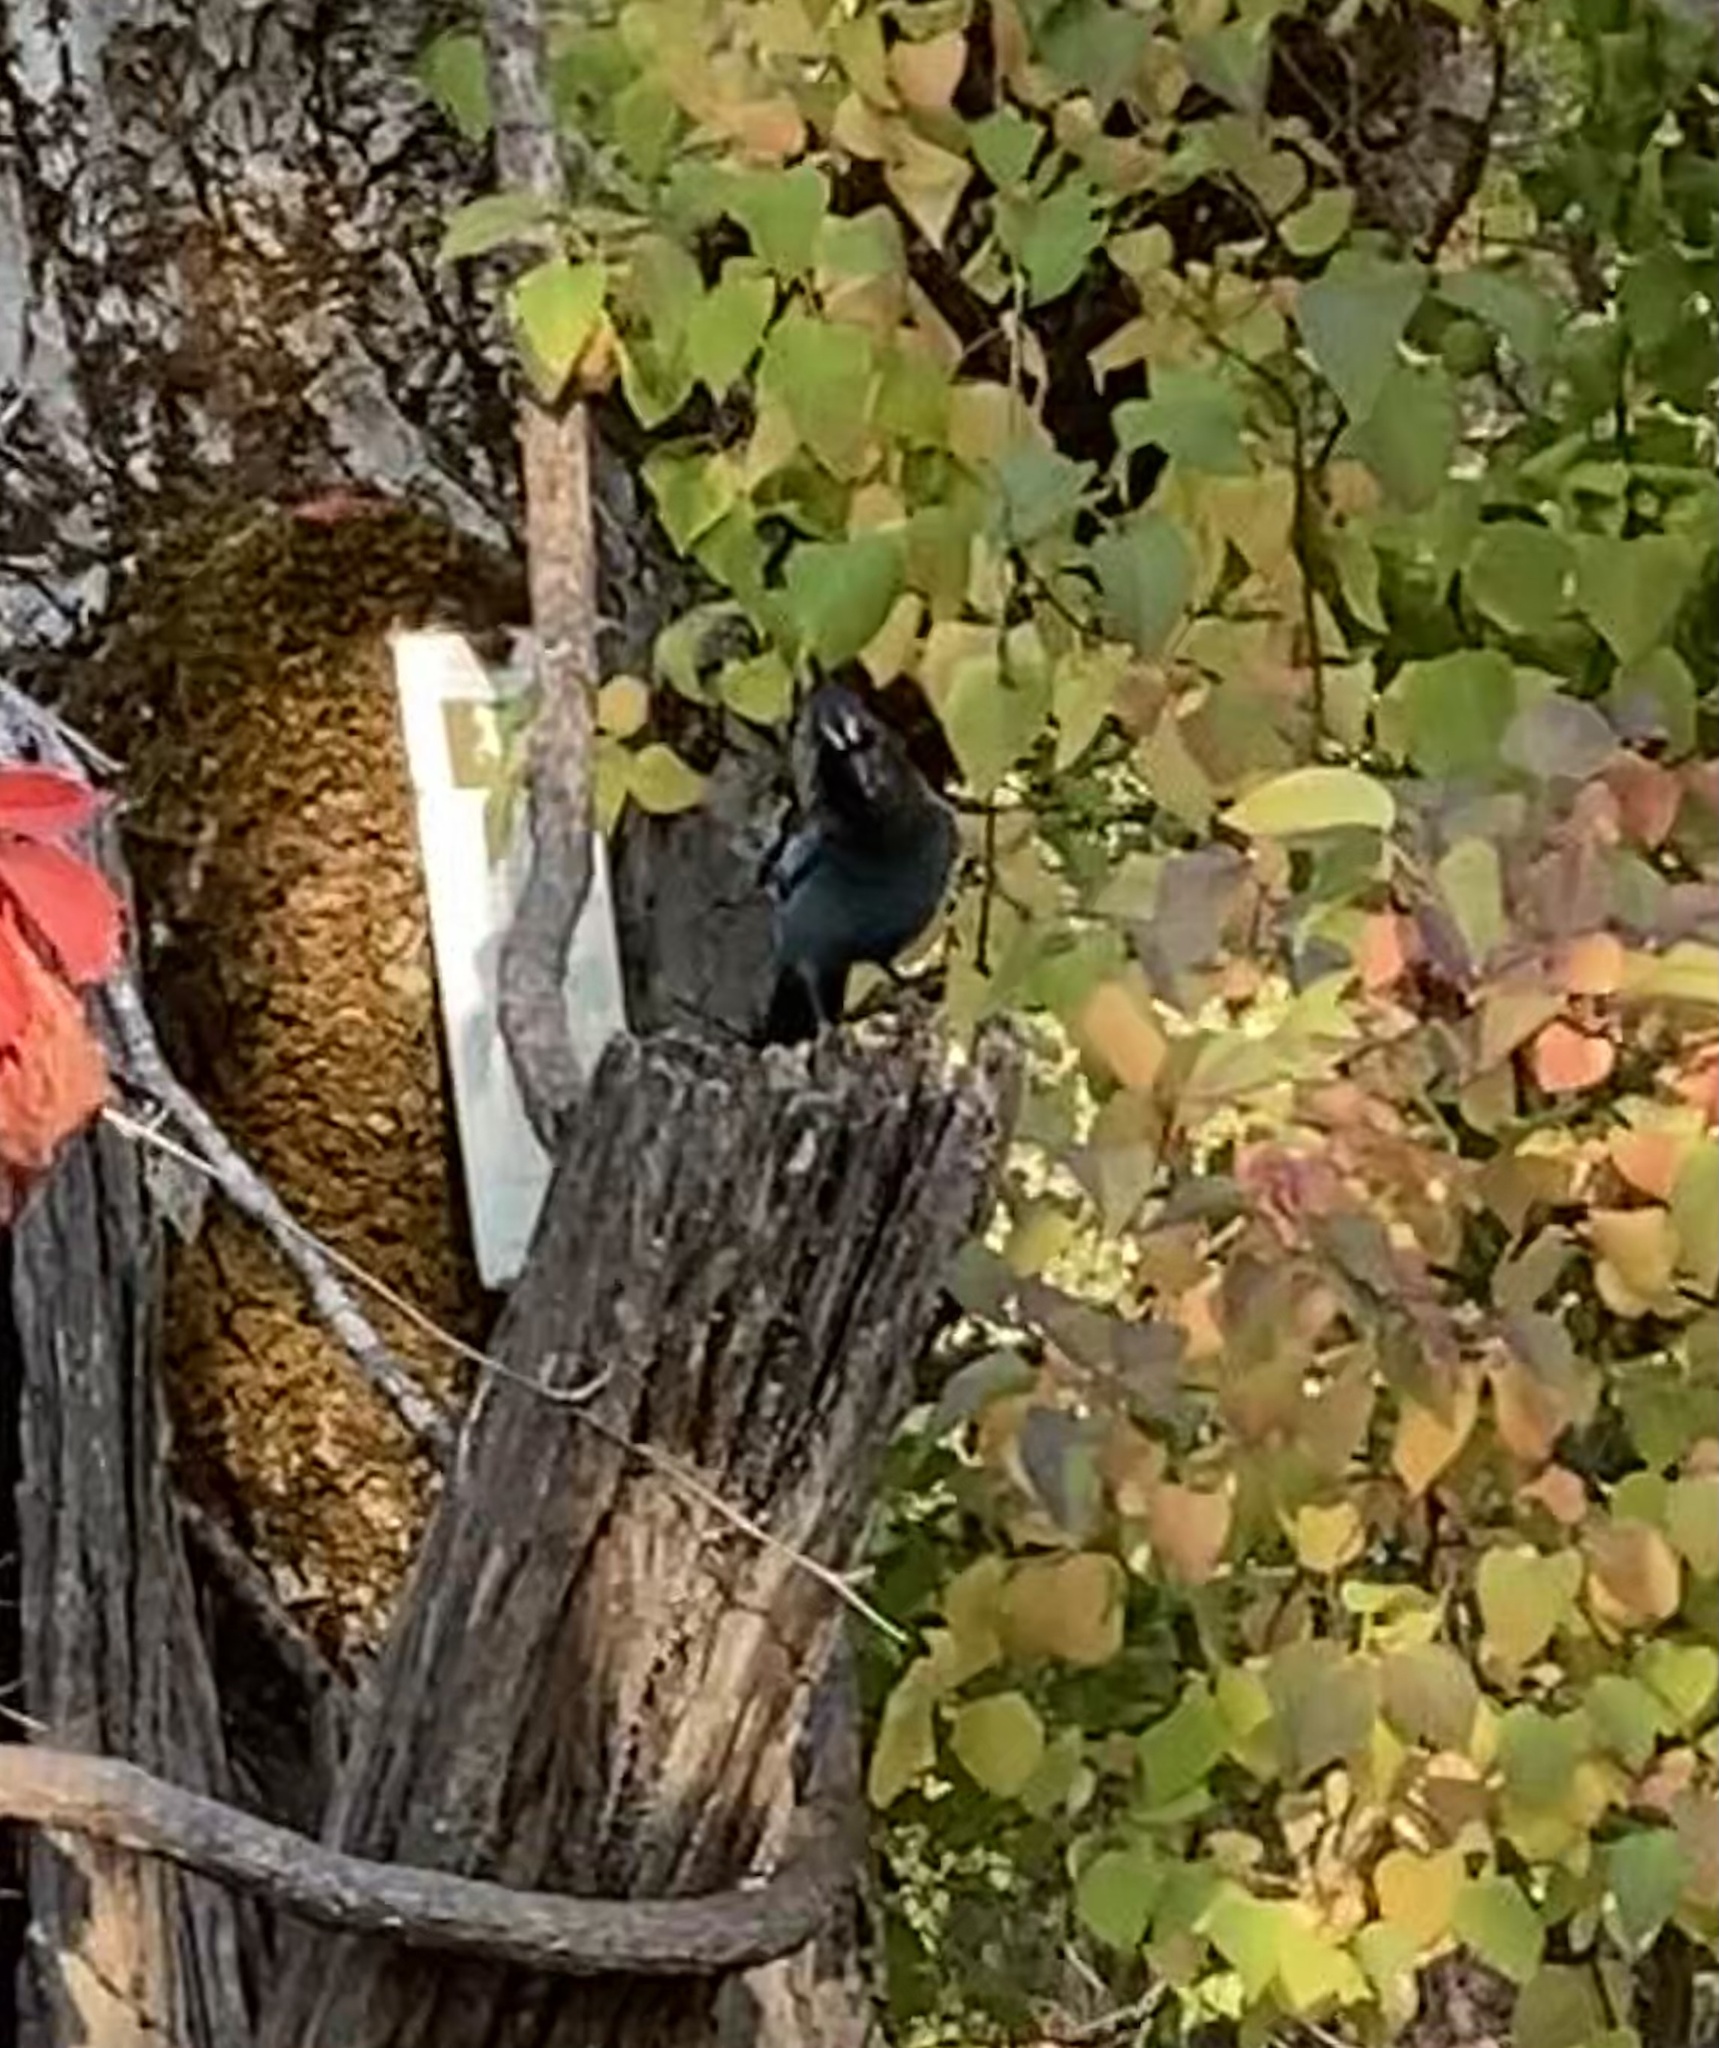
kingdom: Animalia
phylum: Chordata
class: Aves
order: Passeriformes
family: Corvidae
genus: Cyanocitta
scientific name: Cyanocitta stelleri
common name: Steller's jay
